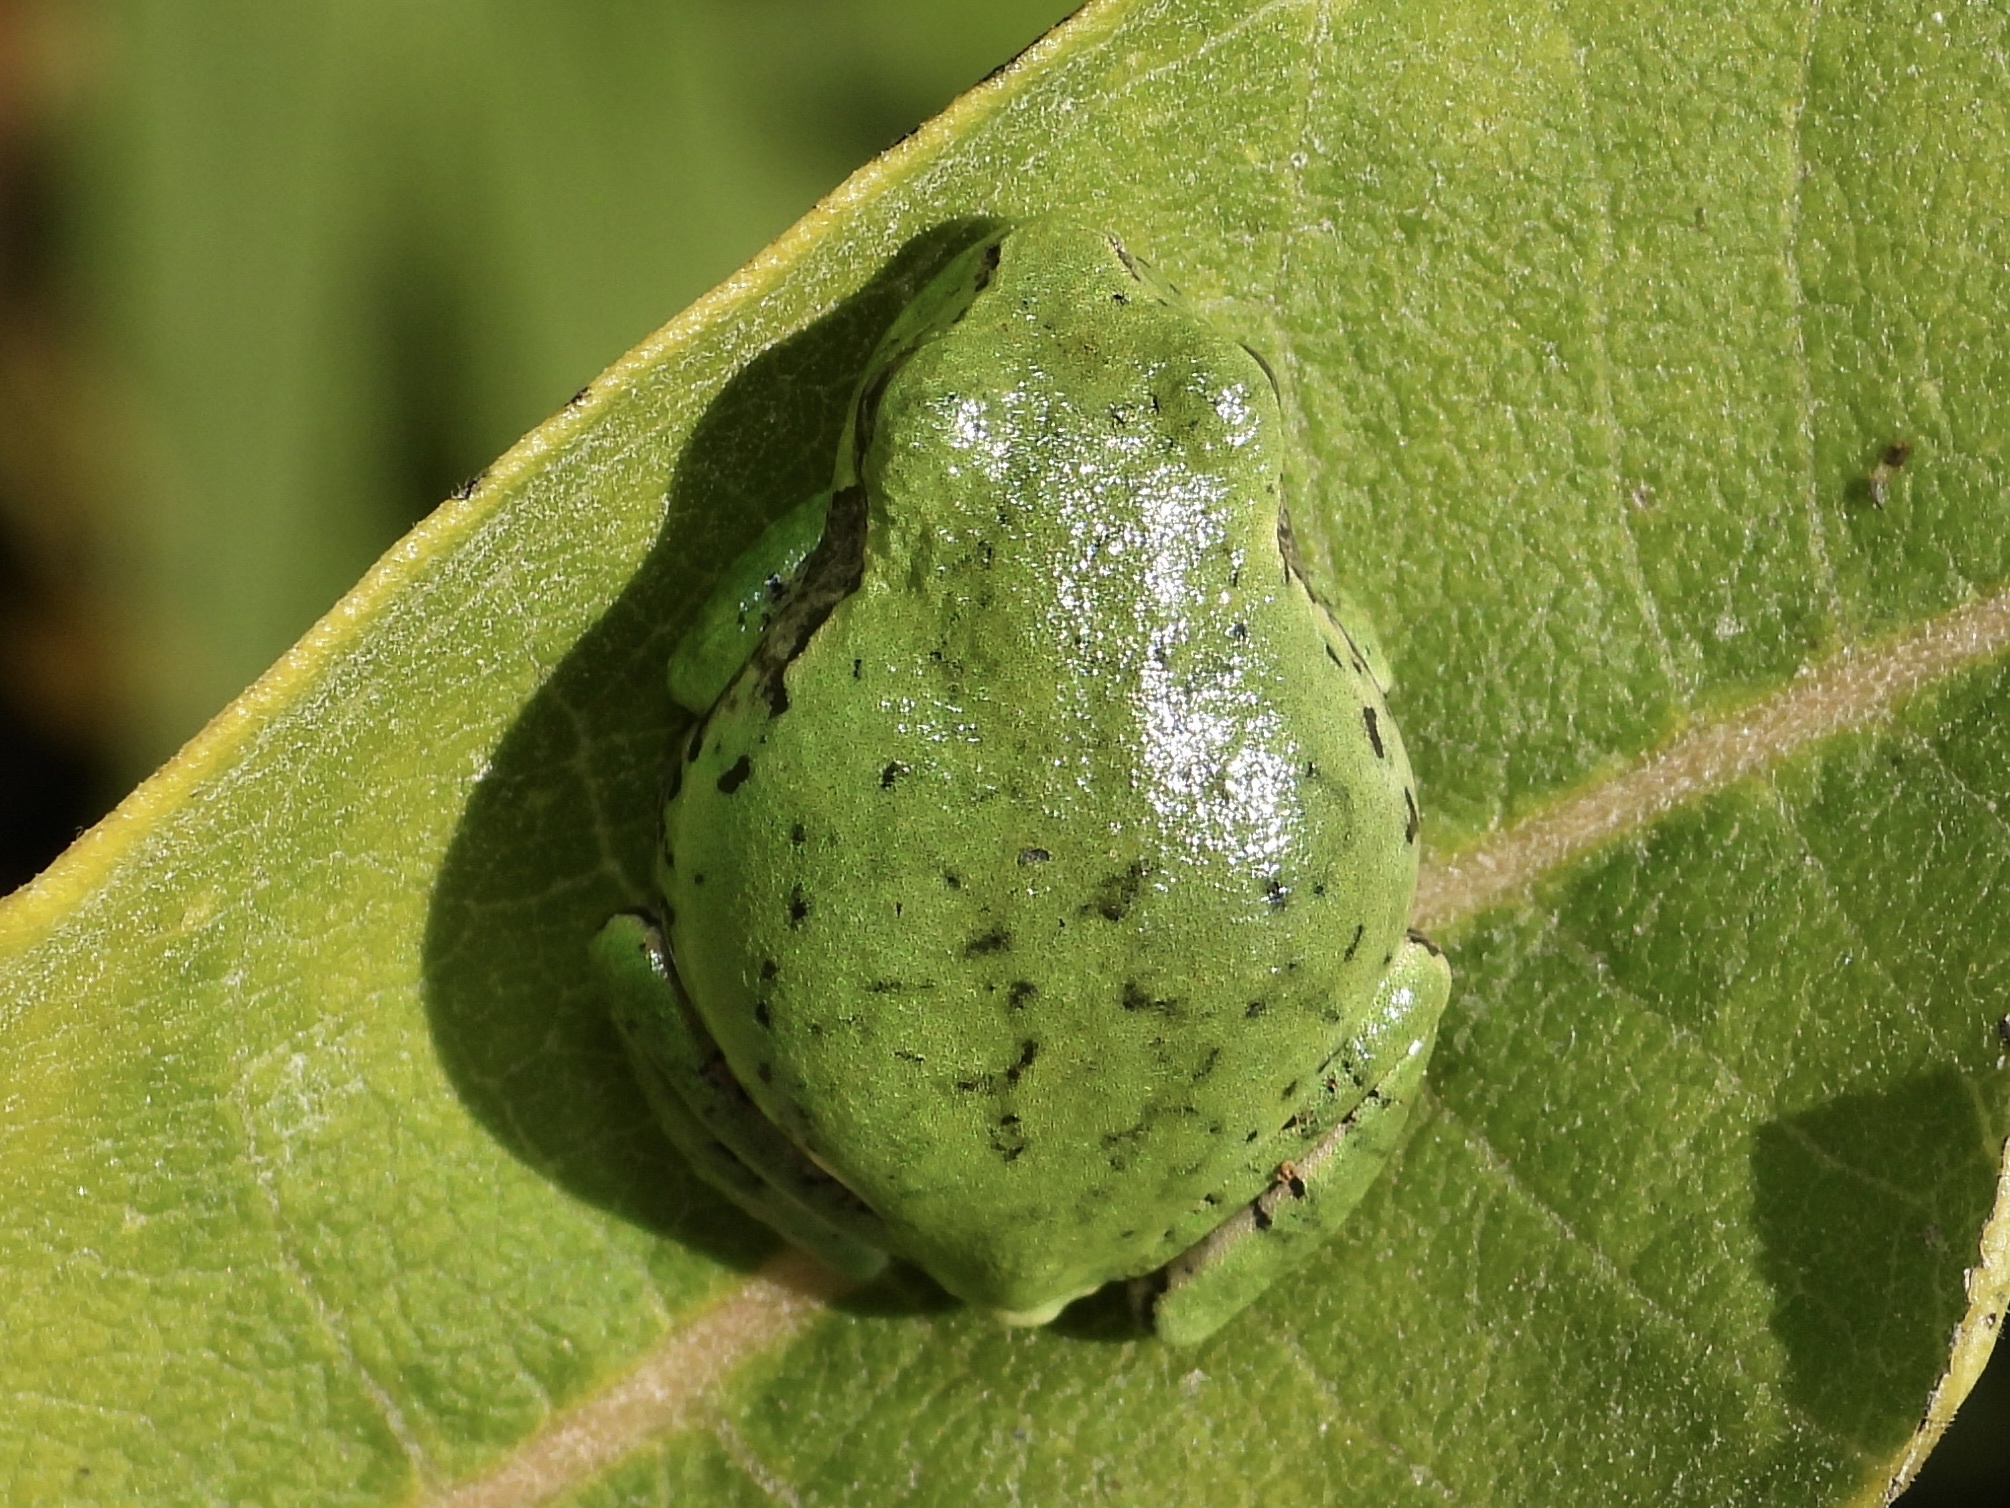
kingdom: Animalia
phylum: Chordata
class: Amphibia
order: Anura
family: Hylidae
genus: Dryophytes
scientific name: Dryophytes versicolor
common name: Gray treefrog
